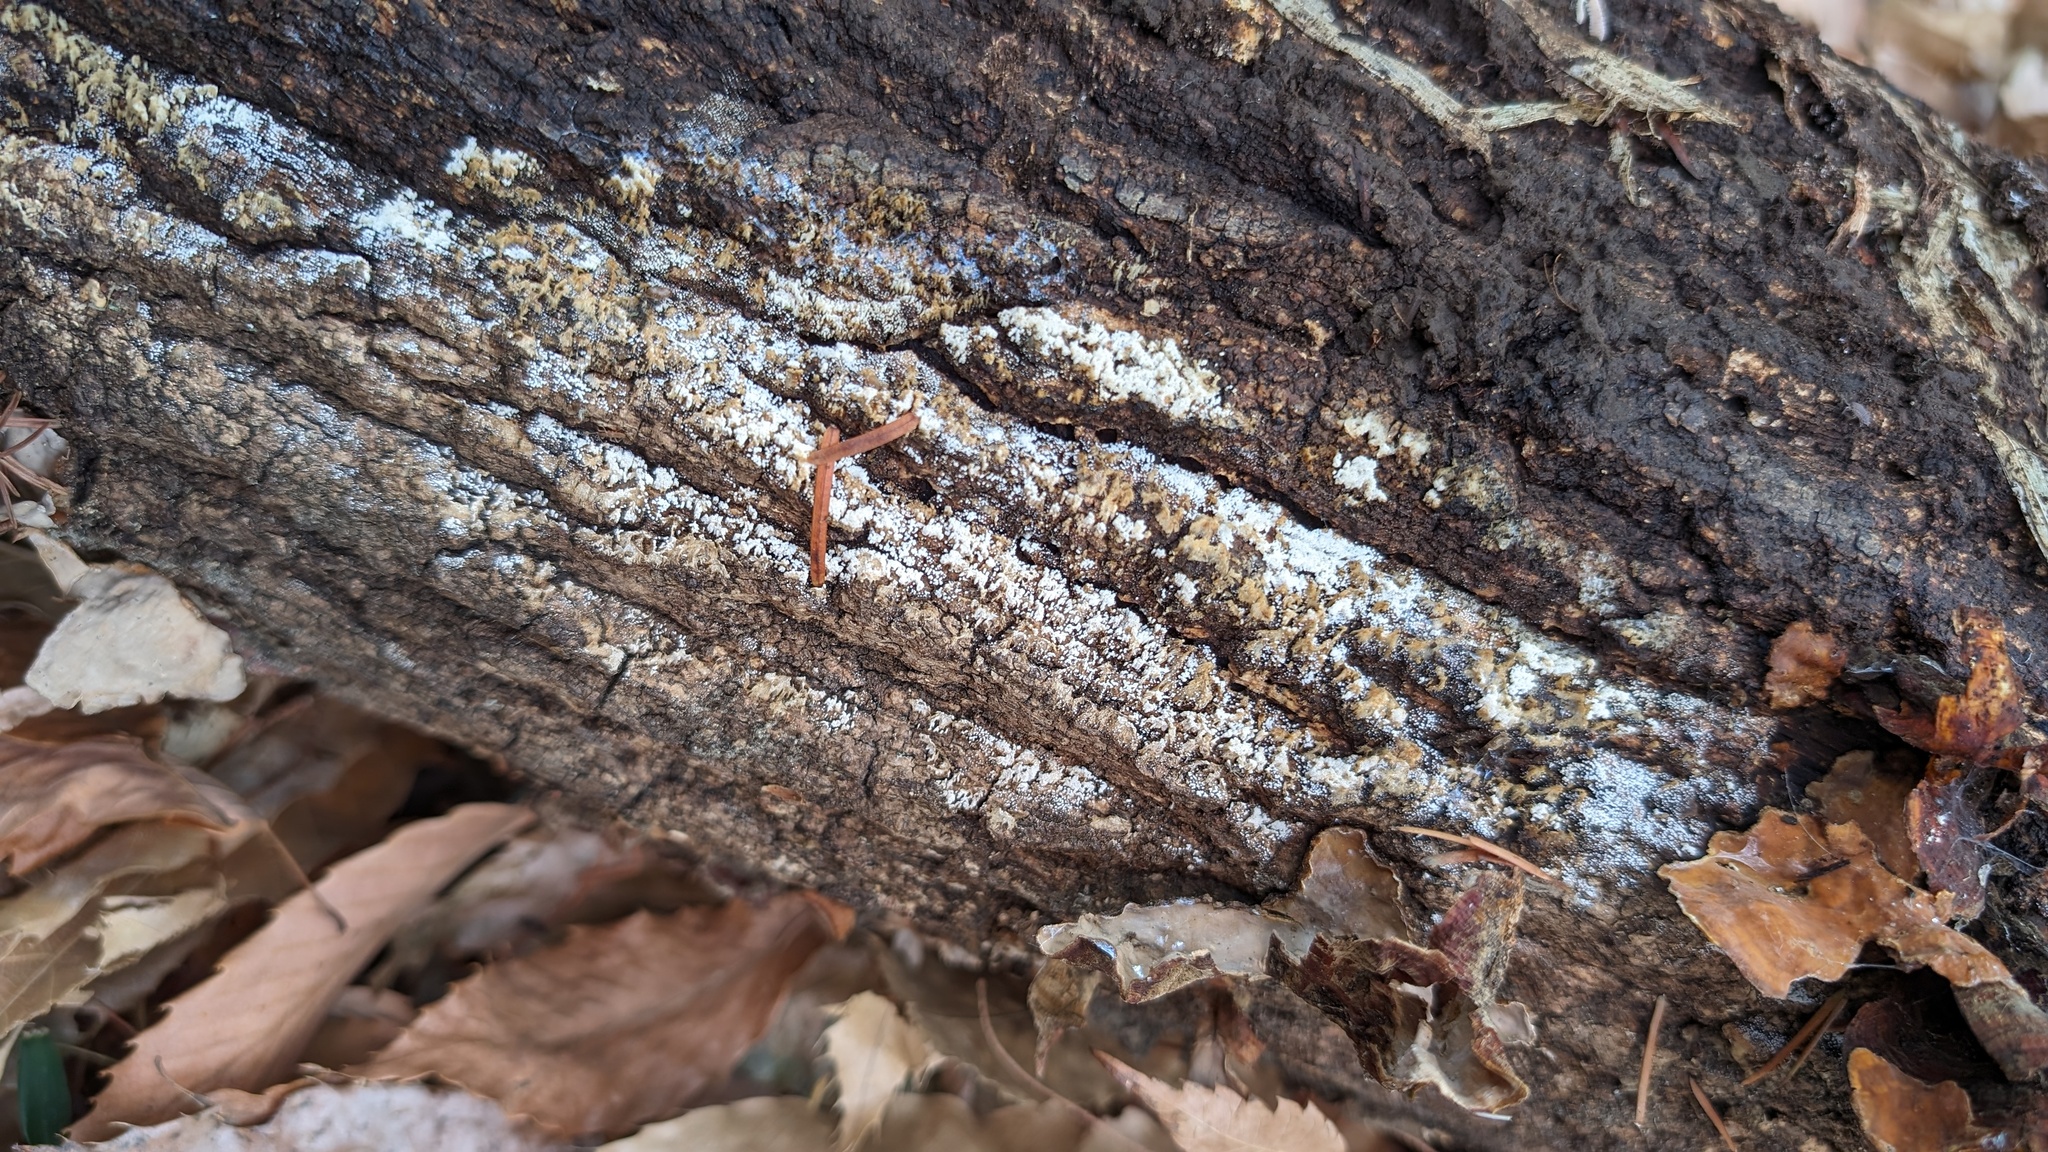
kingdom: Fungi
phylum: Basidiomycota
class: Agaricomycetes
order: Agaricales
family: Marasmiaceae
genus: Henningsomyces
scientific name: Henningsomyces candidus
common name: White tubelet
